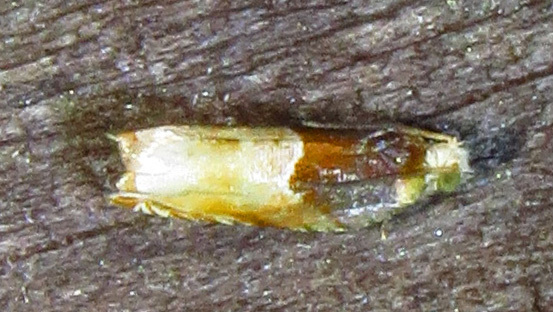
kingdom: Animalia
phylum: Arthropoda
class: Insecta
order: Lepidoptera
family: Tortricidae
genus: Ancylis
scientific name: Ancylis divisana
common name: Two-toned ancylis moth
